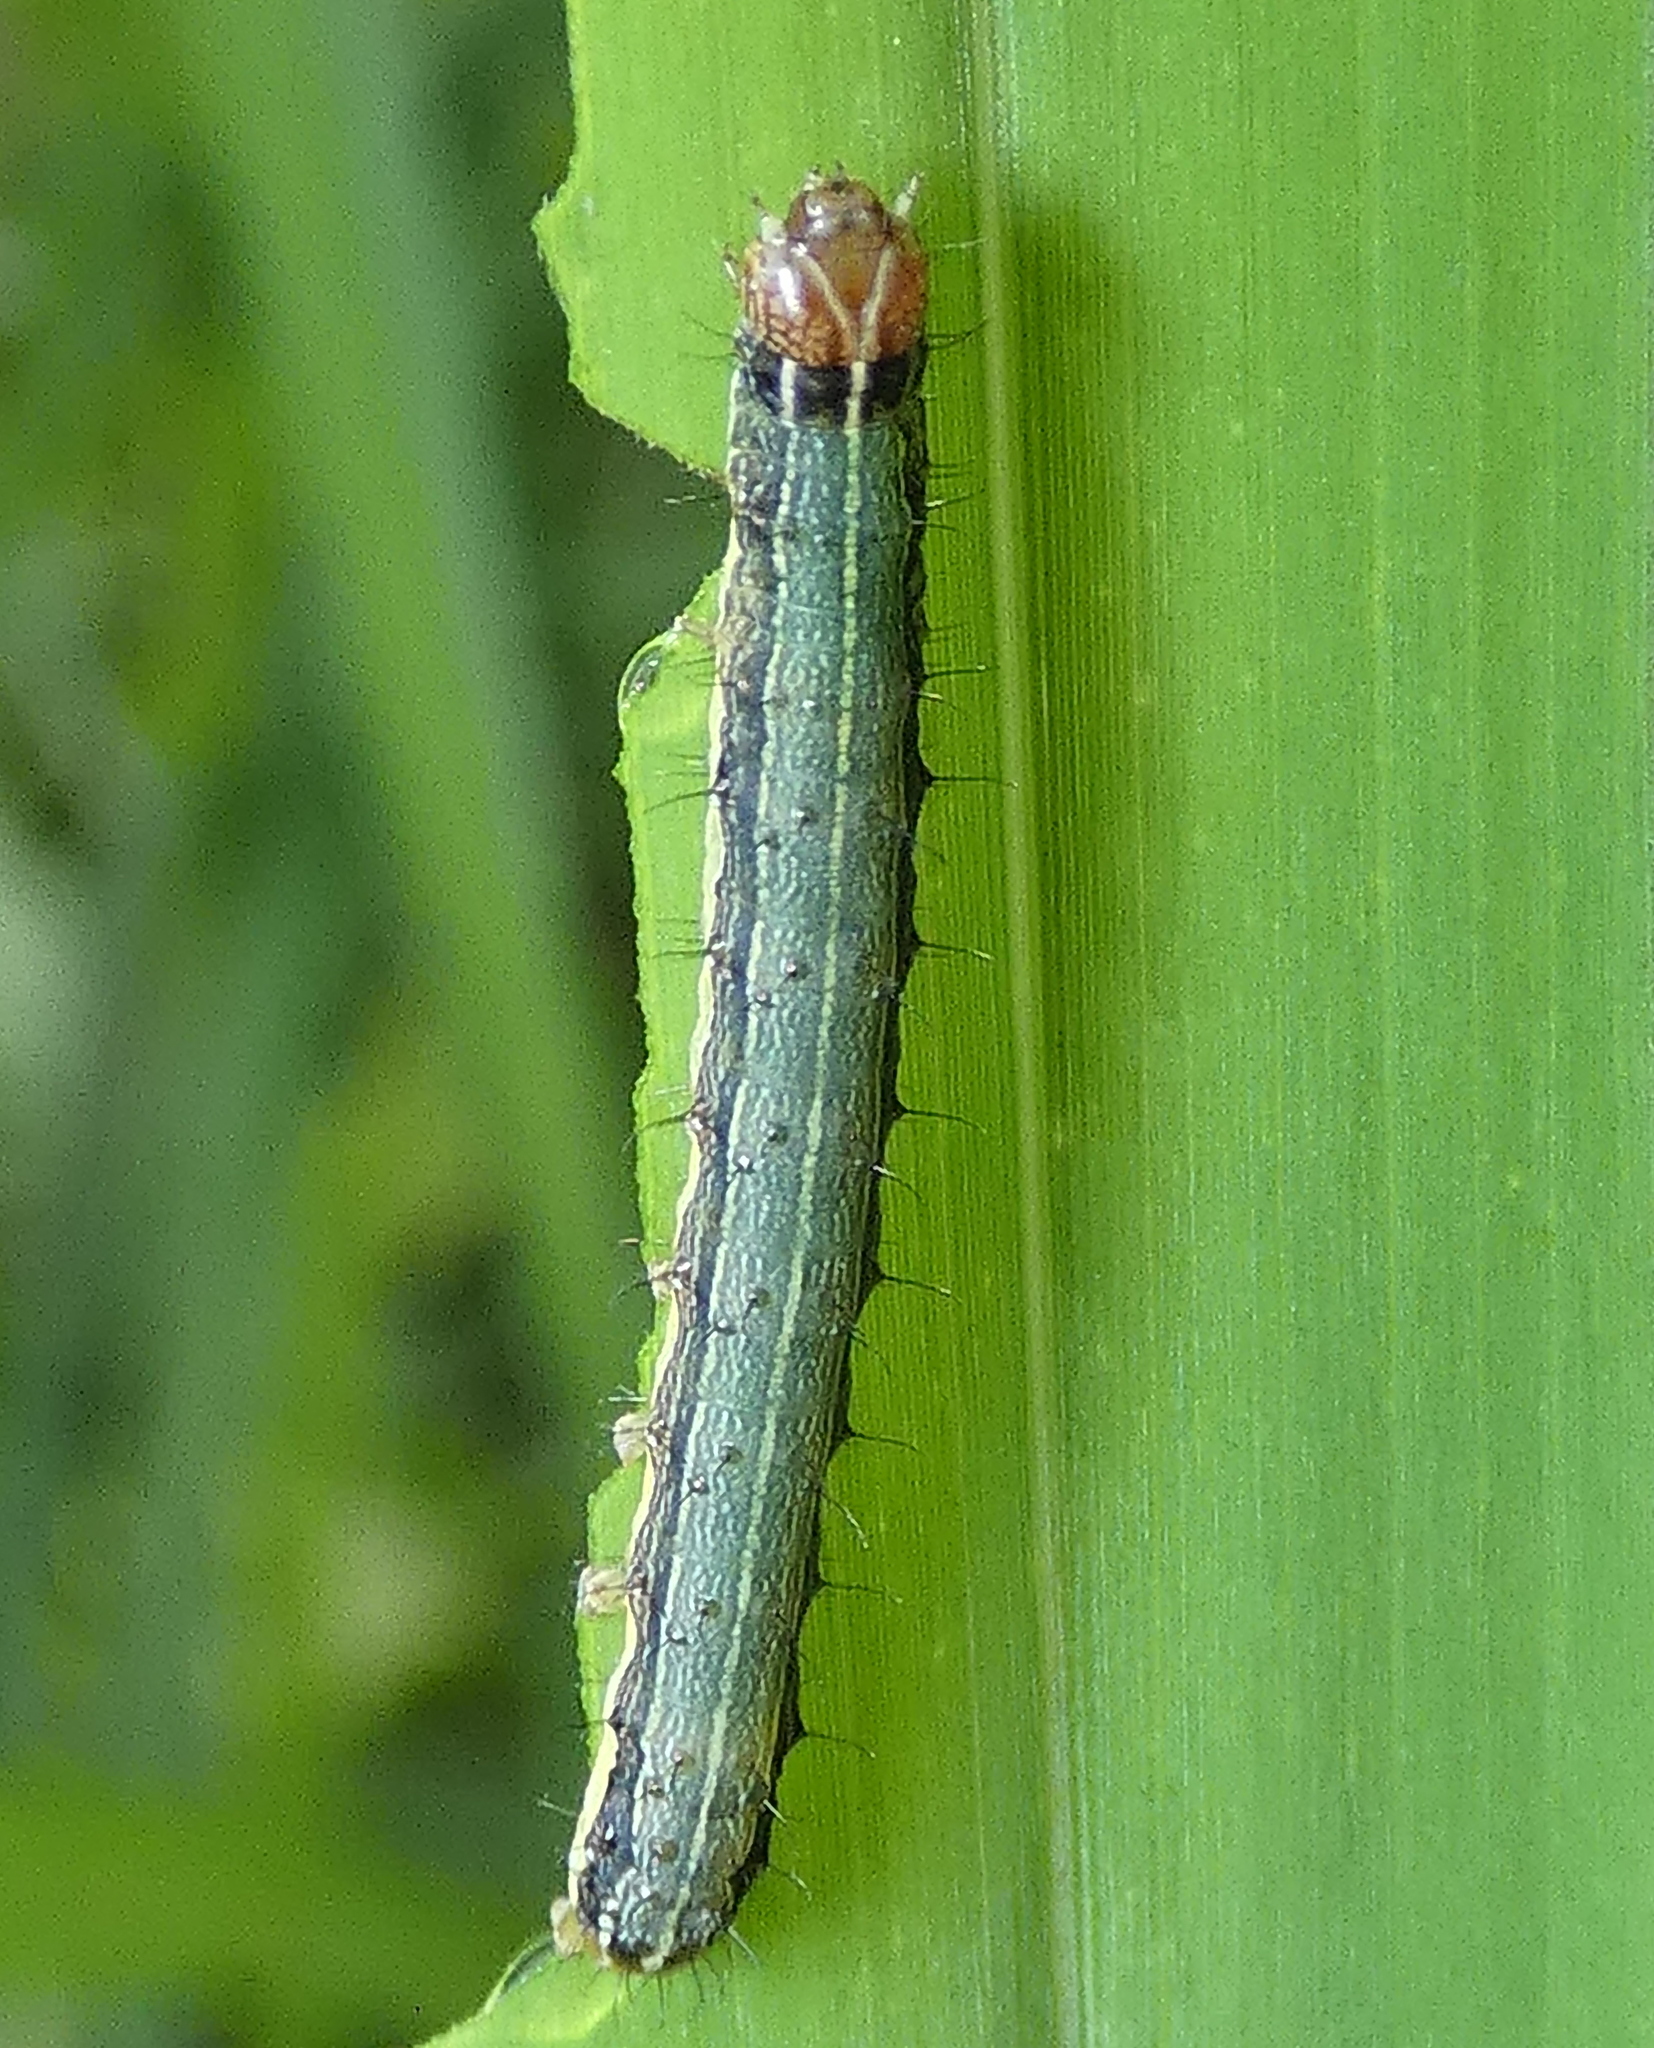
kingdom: Animalia
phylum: Arthropoda
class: Insecta
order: Lepidoptera
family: Noctuidae
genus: Spodoptera
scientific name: Spodoptera frugiperda
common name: Fall armyworm
